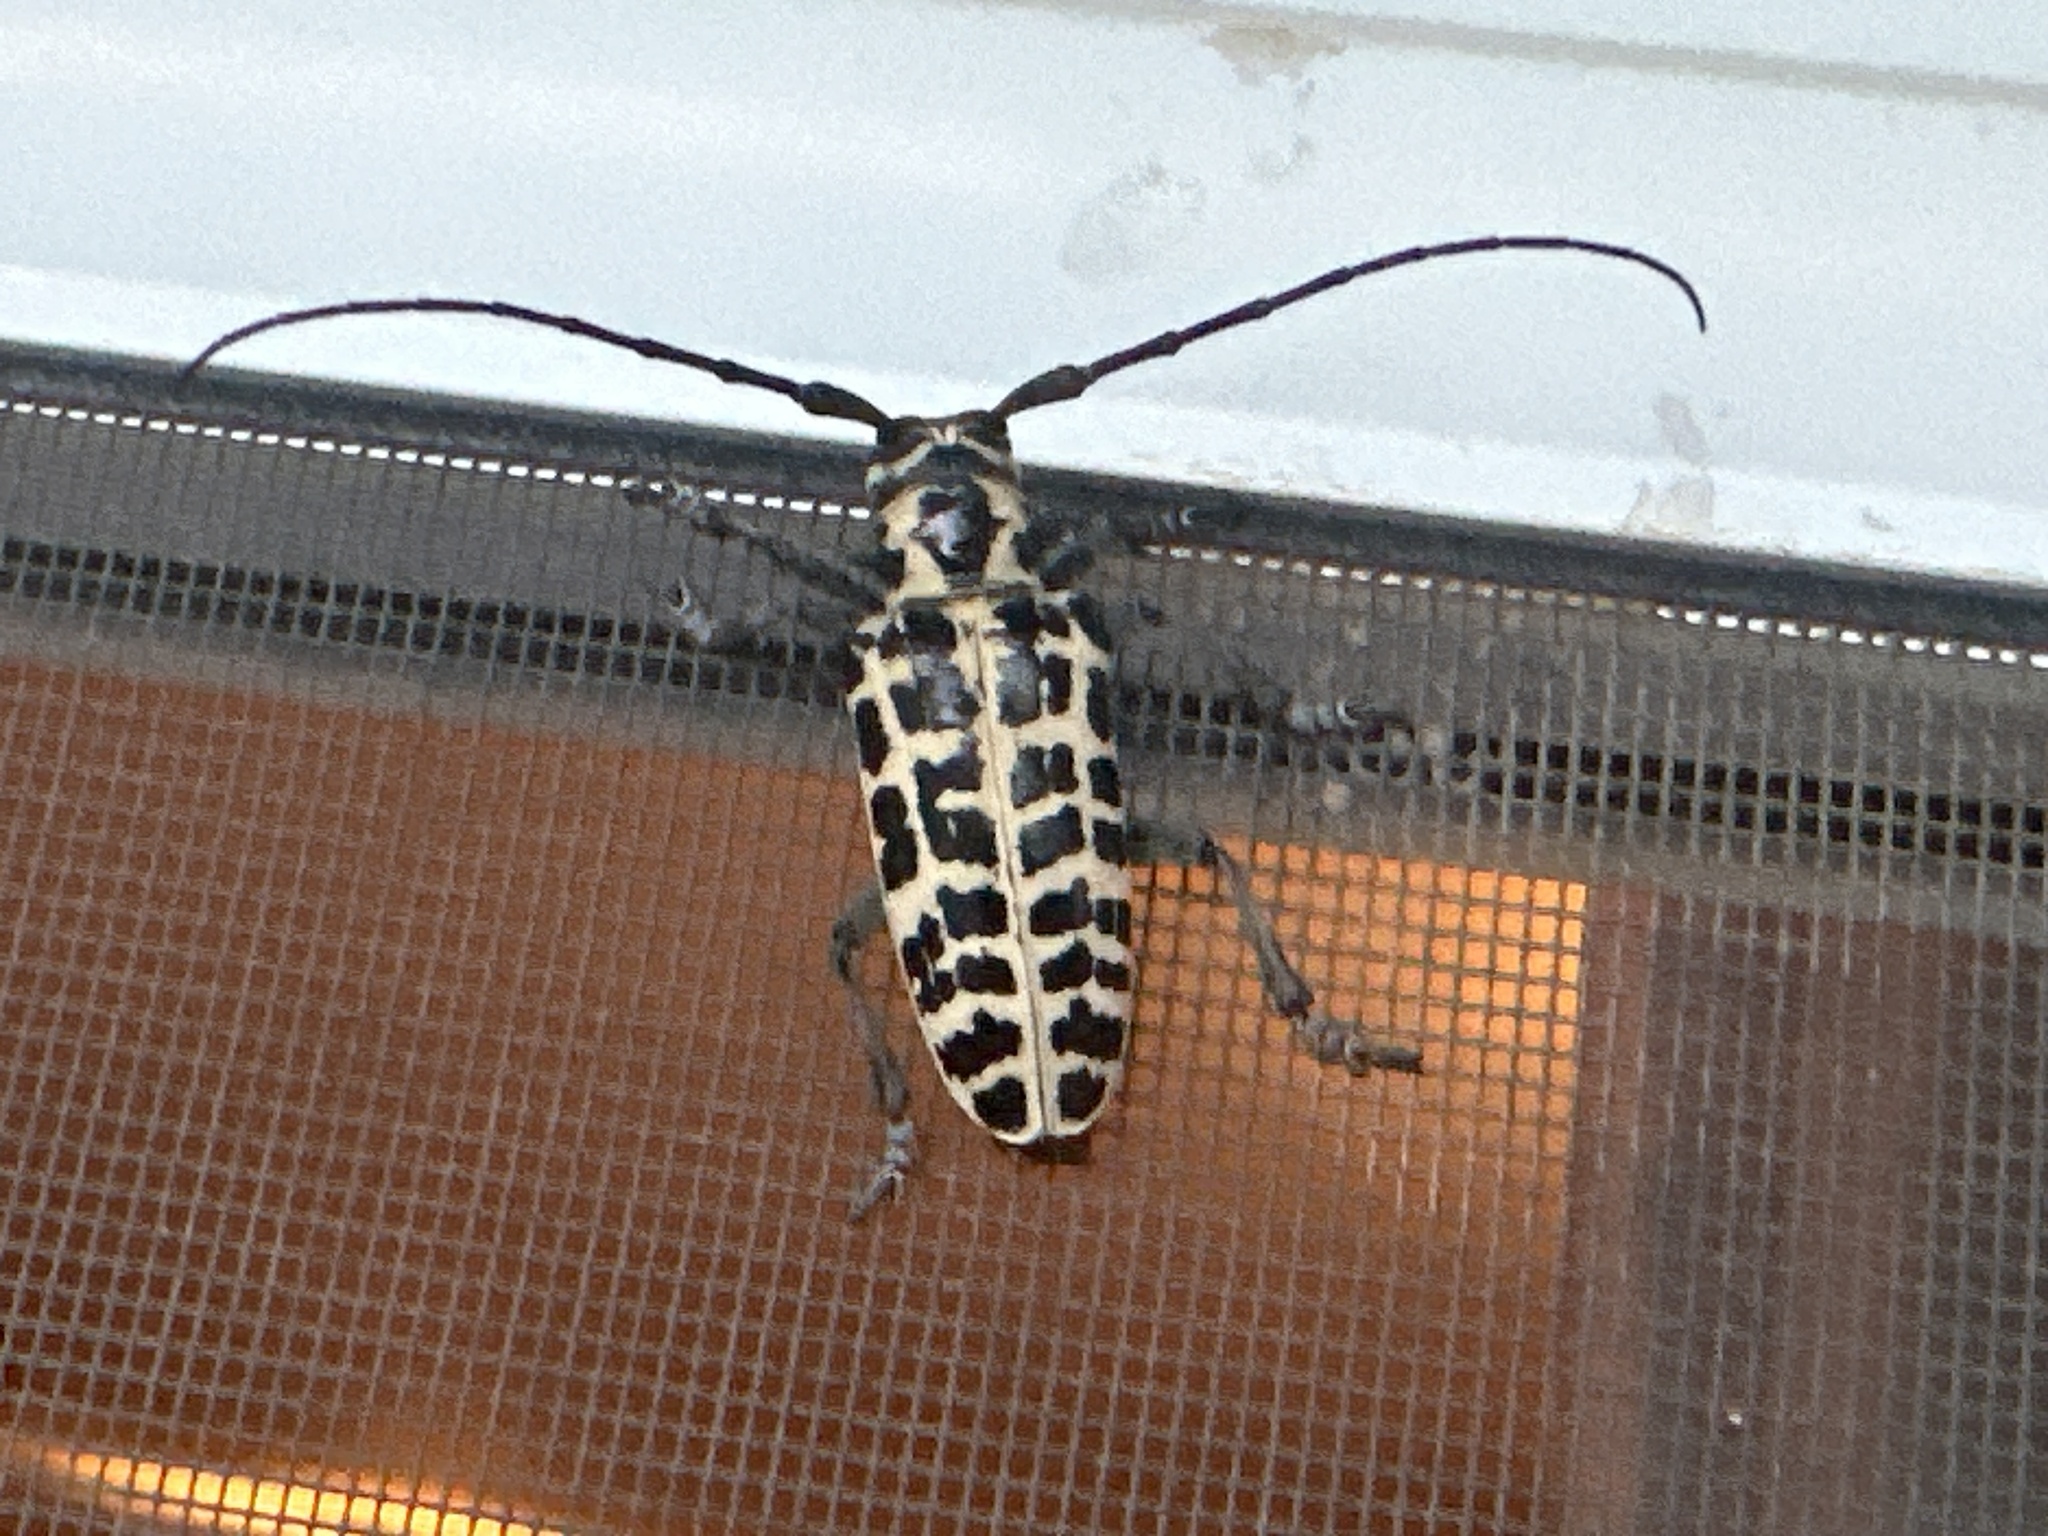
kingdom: Animalia
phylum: Arthropoda
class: Insecta
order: Coleoptera
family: Cerambycidae
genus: Plectrodera
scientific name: Plectrodera scalator
